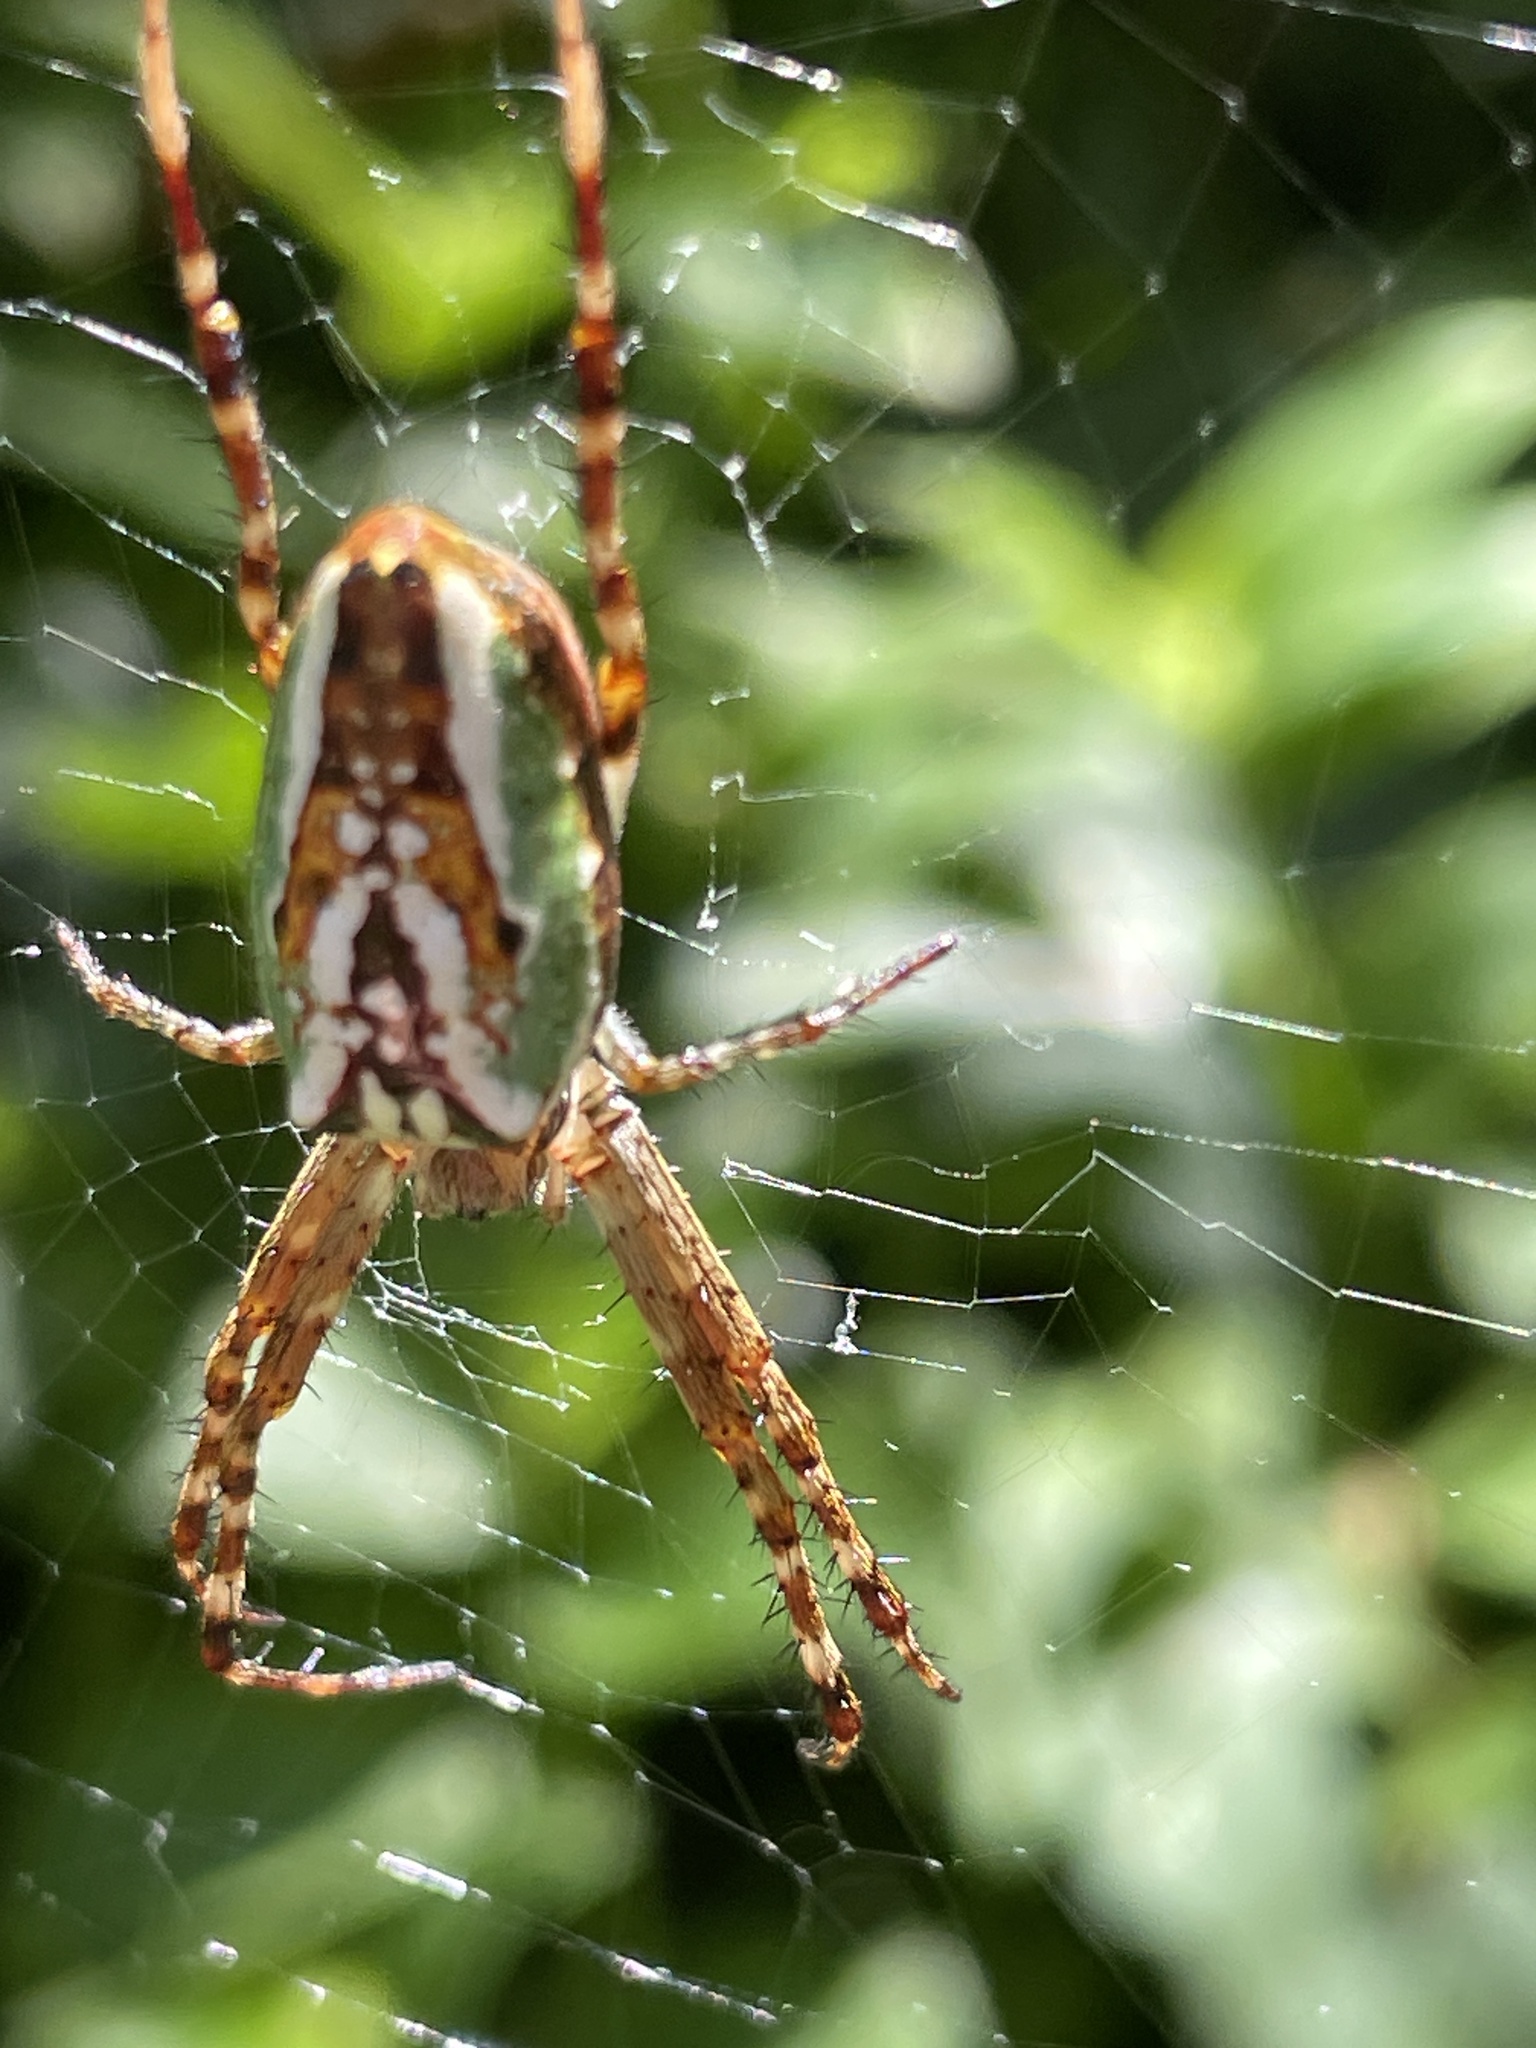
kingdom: Animalia
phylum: Arthropoda
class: Arachnida
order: Araneae
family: Araneidae
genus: Plebs
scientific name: Plebs bradleyi
